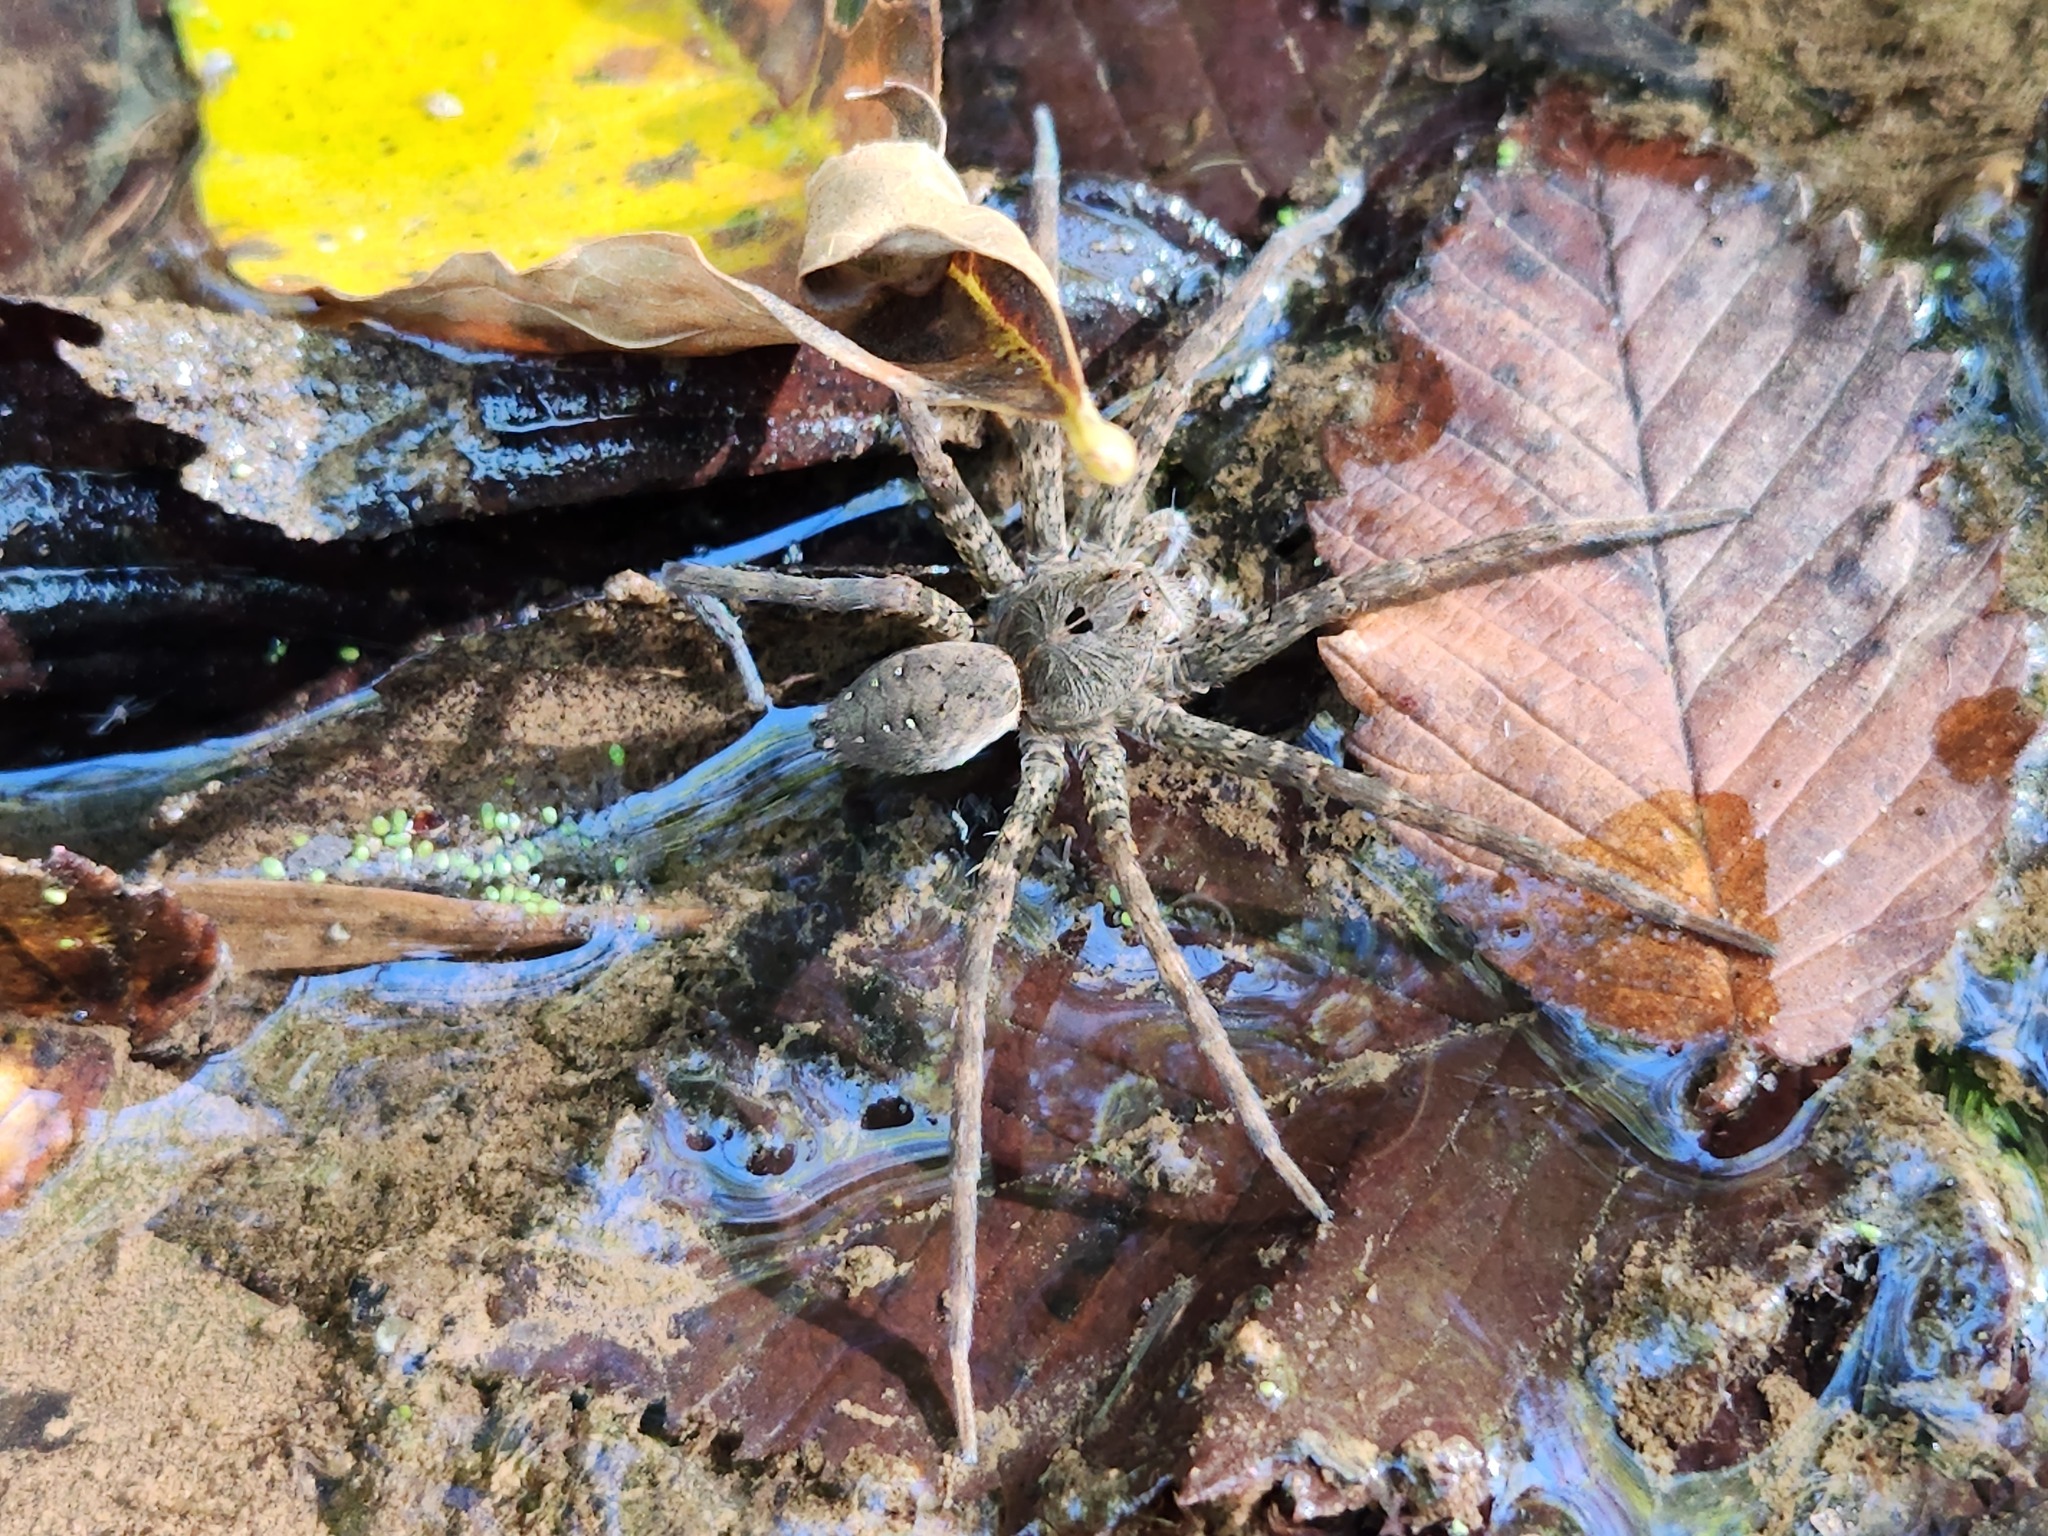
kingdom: Animalia
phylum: Arthropoda
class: Arachnida
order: Araneae
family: Pisauridae
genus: Dolomedes
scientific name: Dolomedes vittatus
